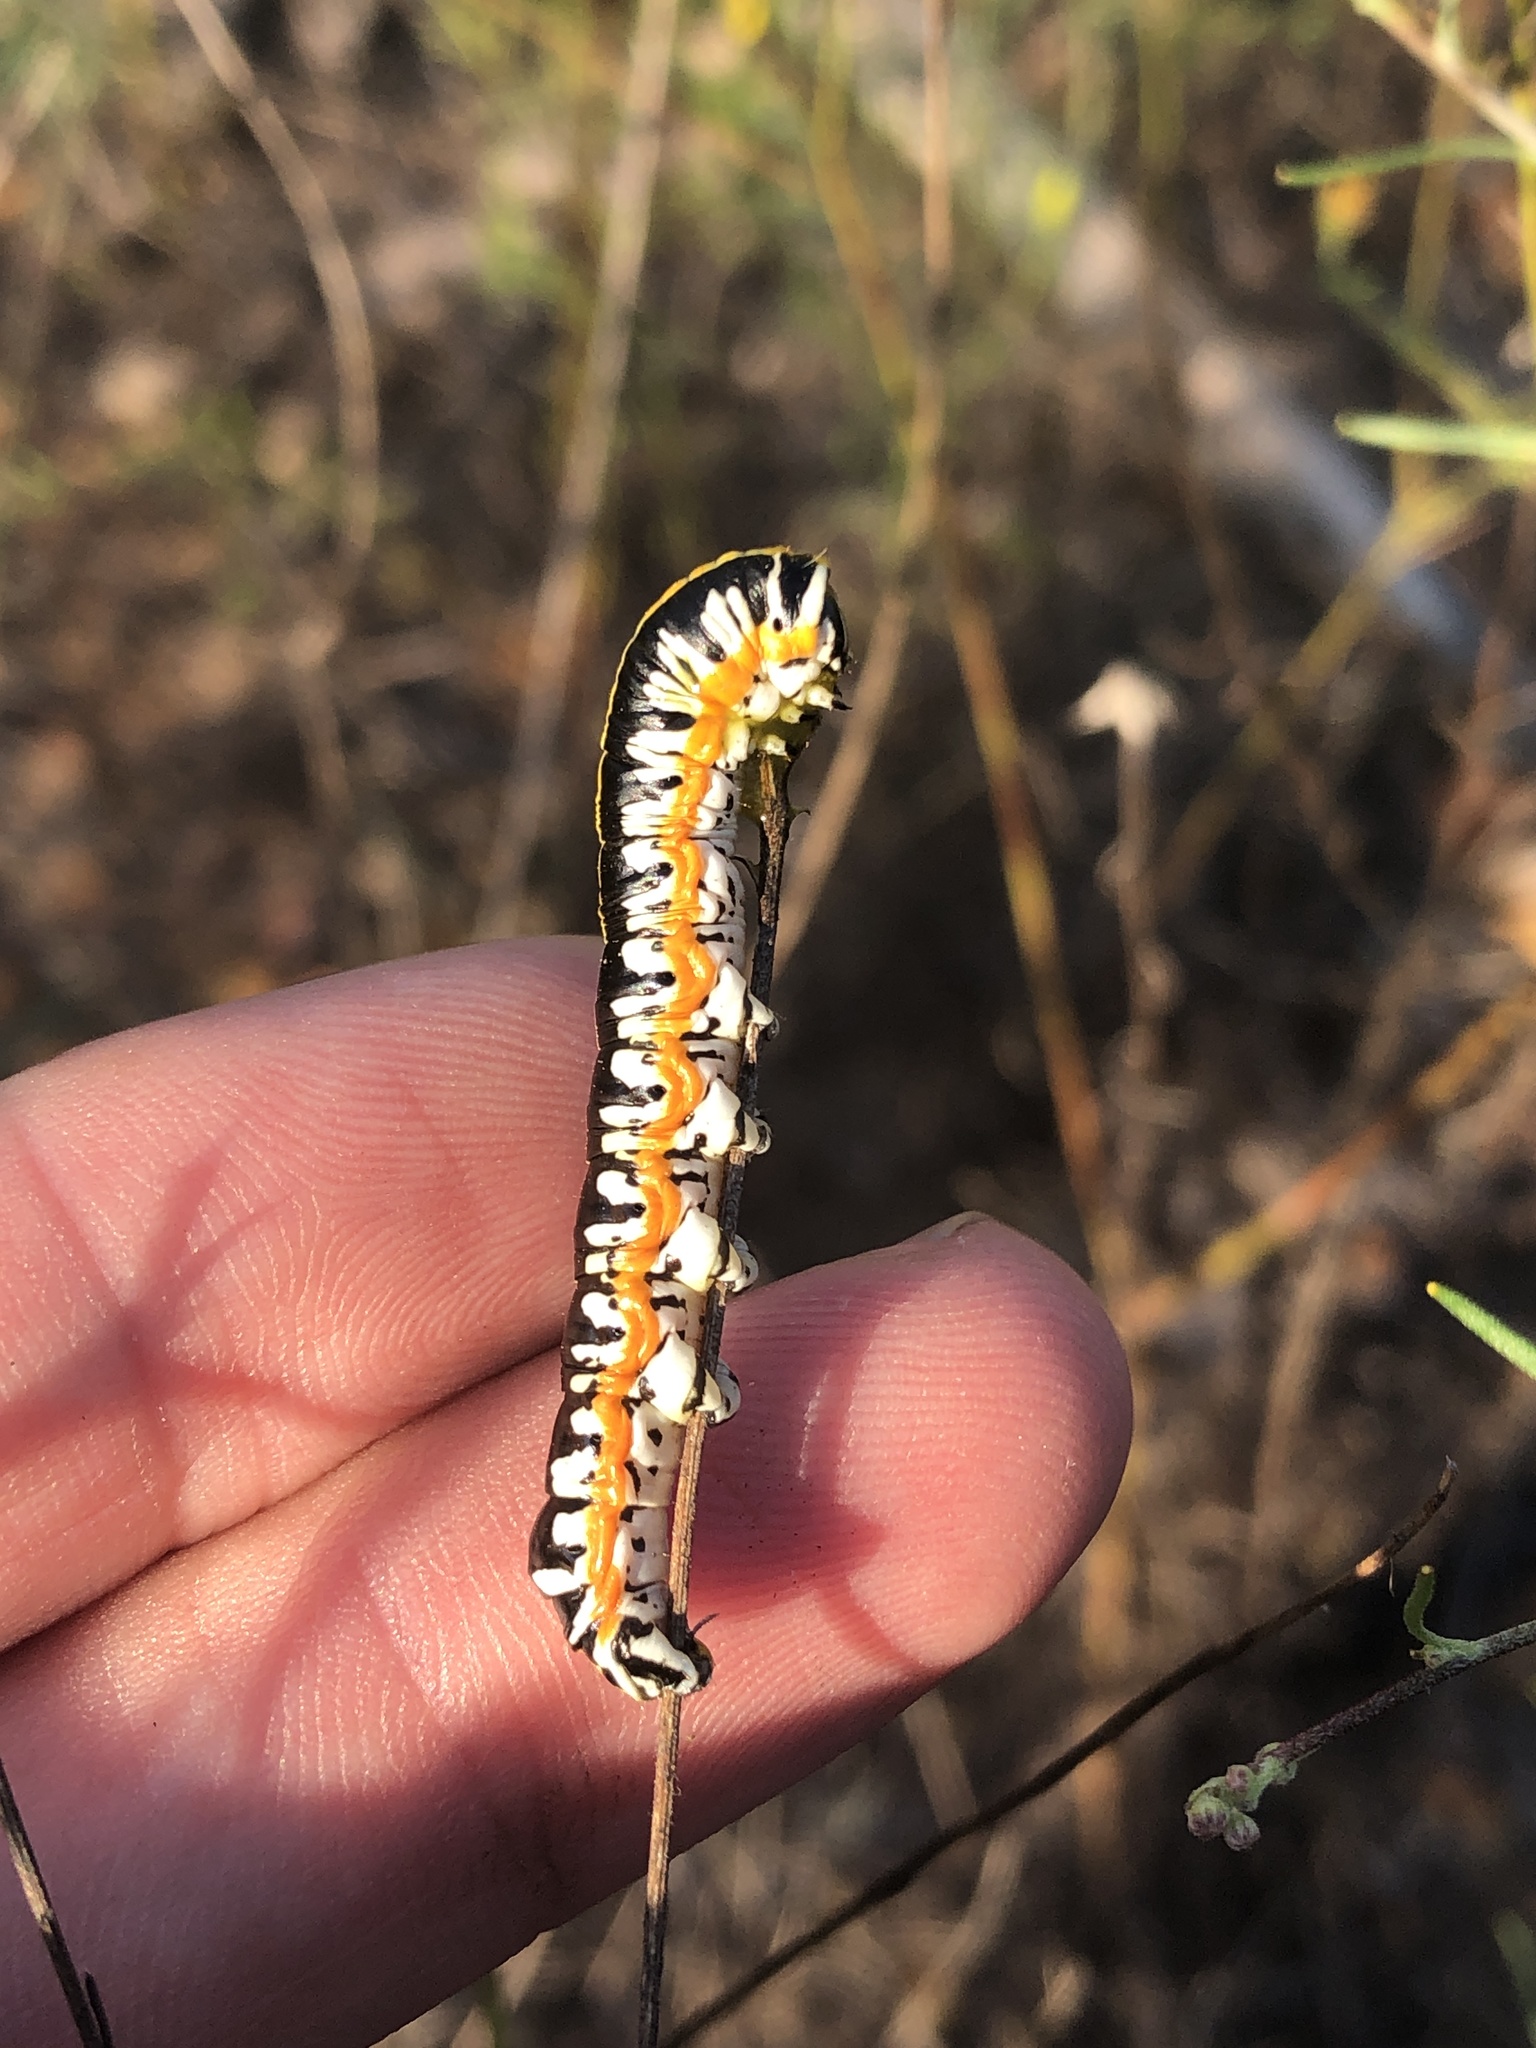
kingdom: Animalia
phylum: Arthropoda
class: Insecta
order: Lepidoptera
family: Noctuidae
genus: Cucullia
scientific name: Cucullia alfarata
